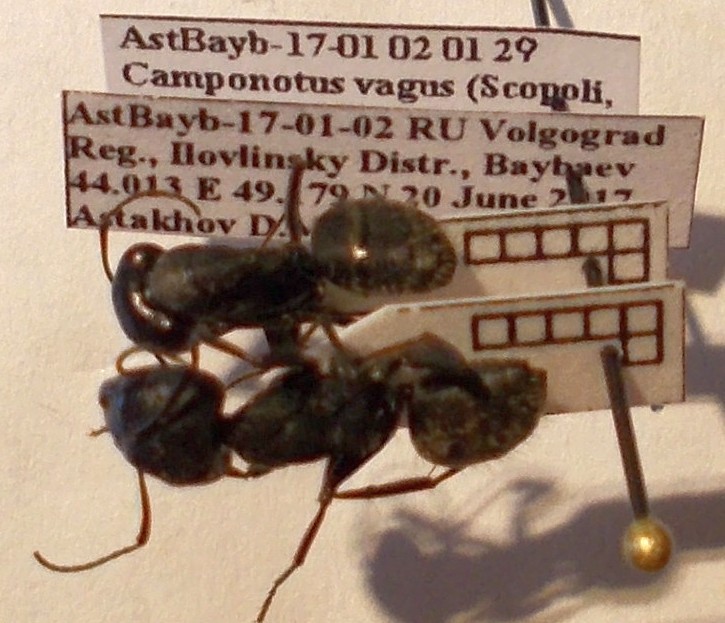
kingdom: Animalia
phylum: Arthropoda
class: Insecta
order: Hymenoptera
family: Formicidae
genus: Camponotus
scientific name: Camponotus vagus
